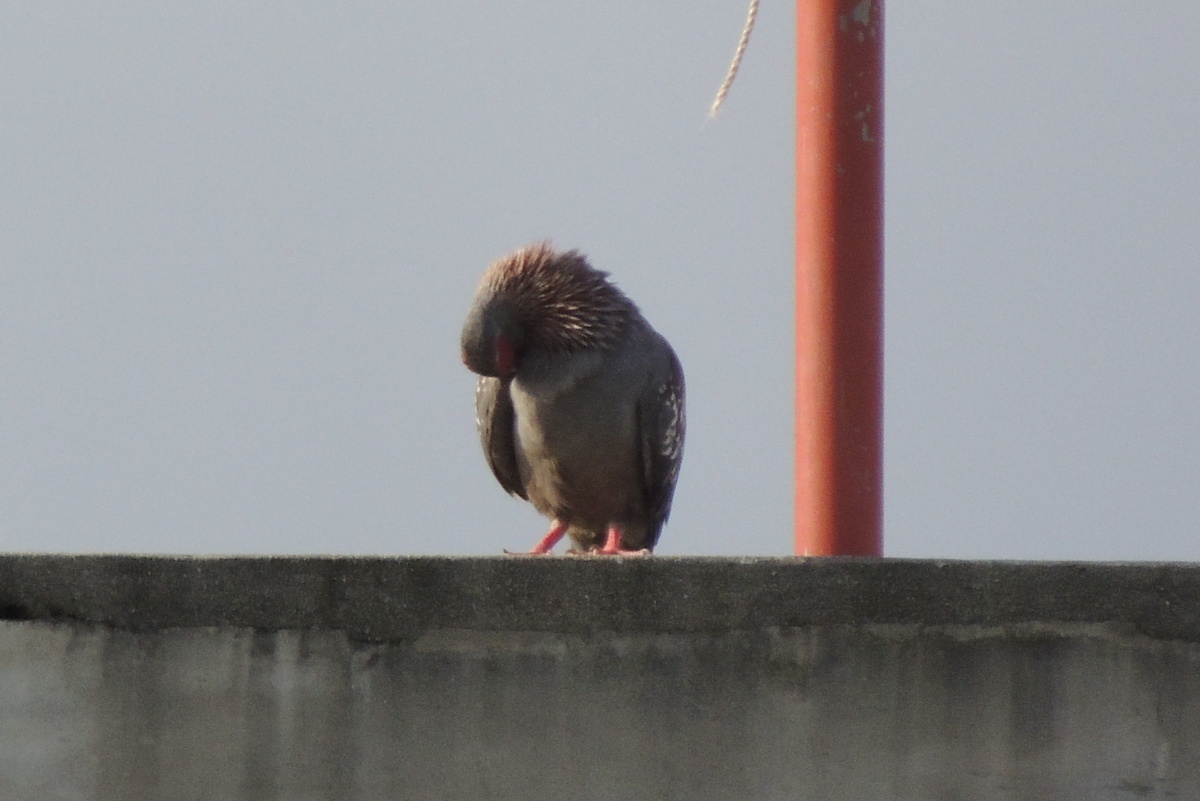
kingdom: Animalia
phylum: Chordata
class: Aves
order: Columbiformes
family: Columbidae
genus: Columba
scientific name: Columba guinea
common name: Speckled pigeon
